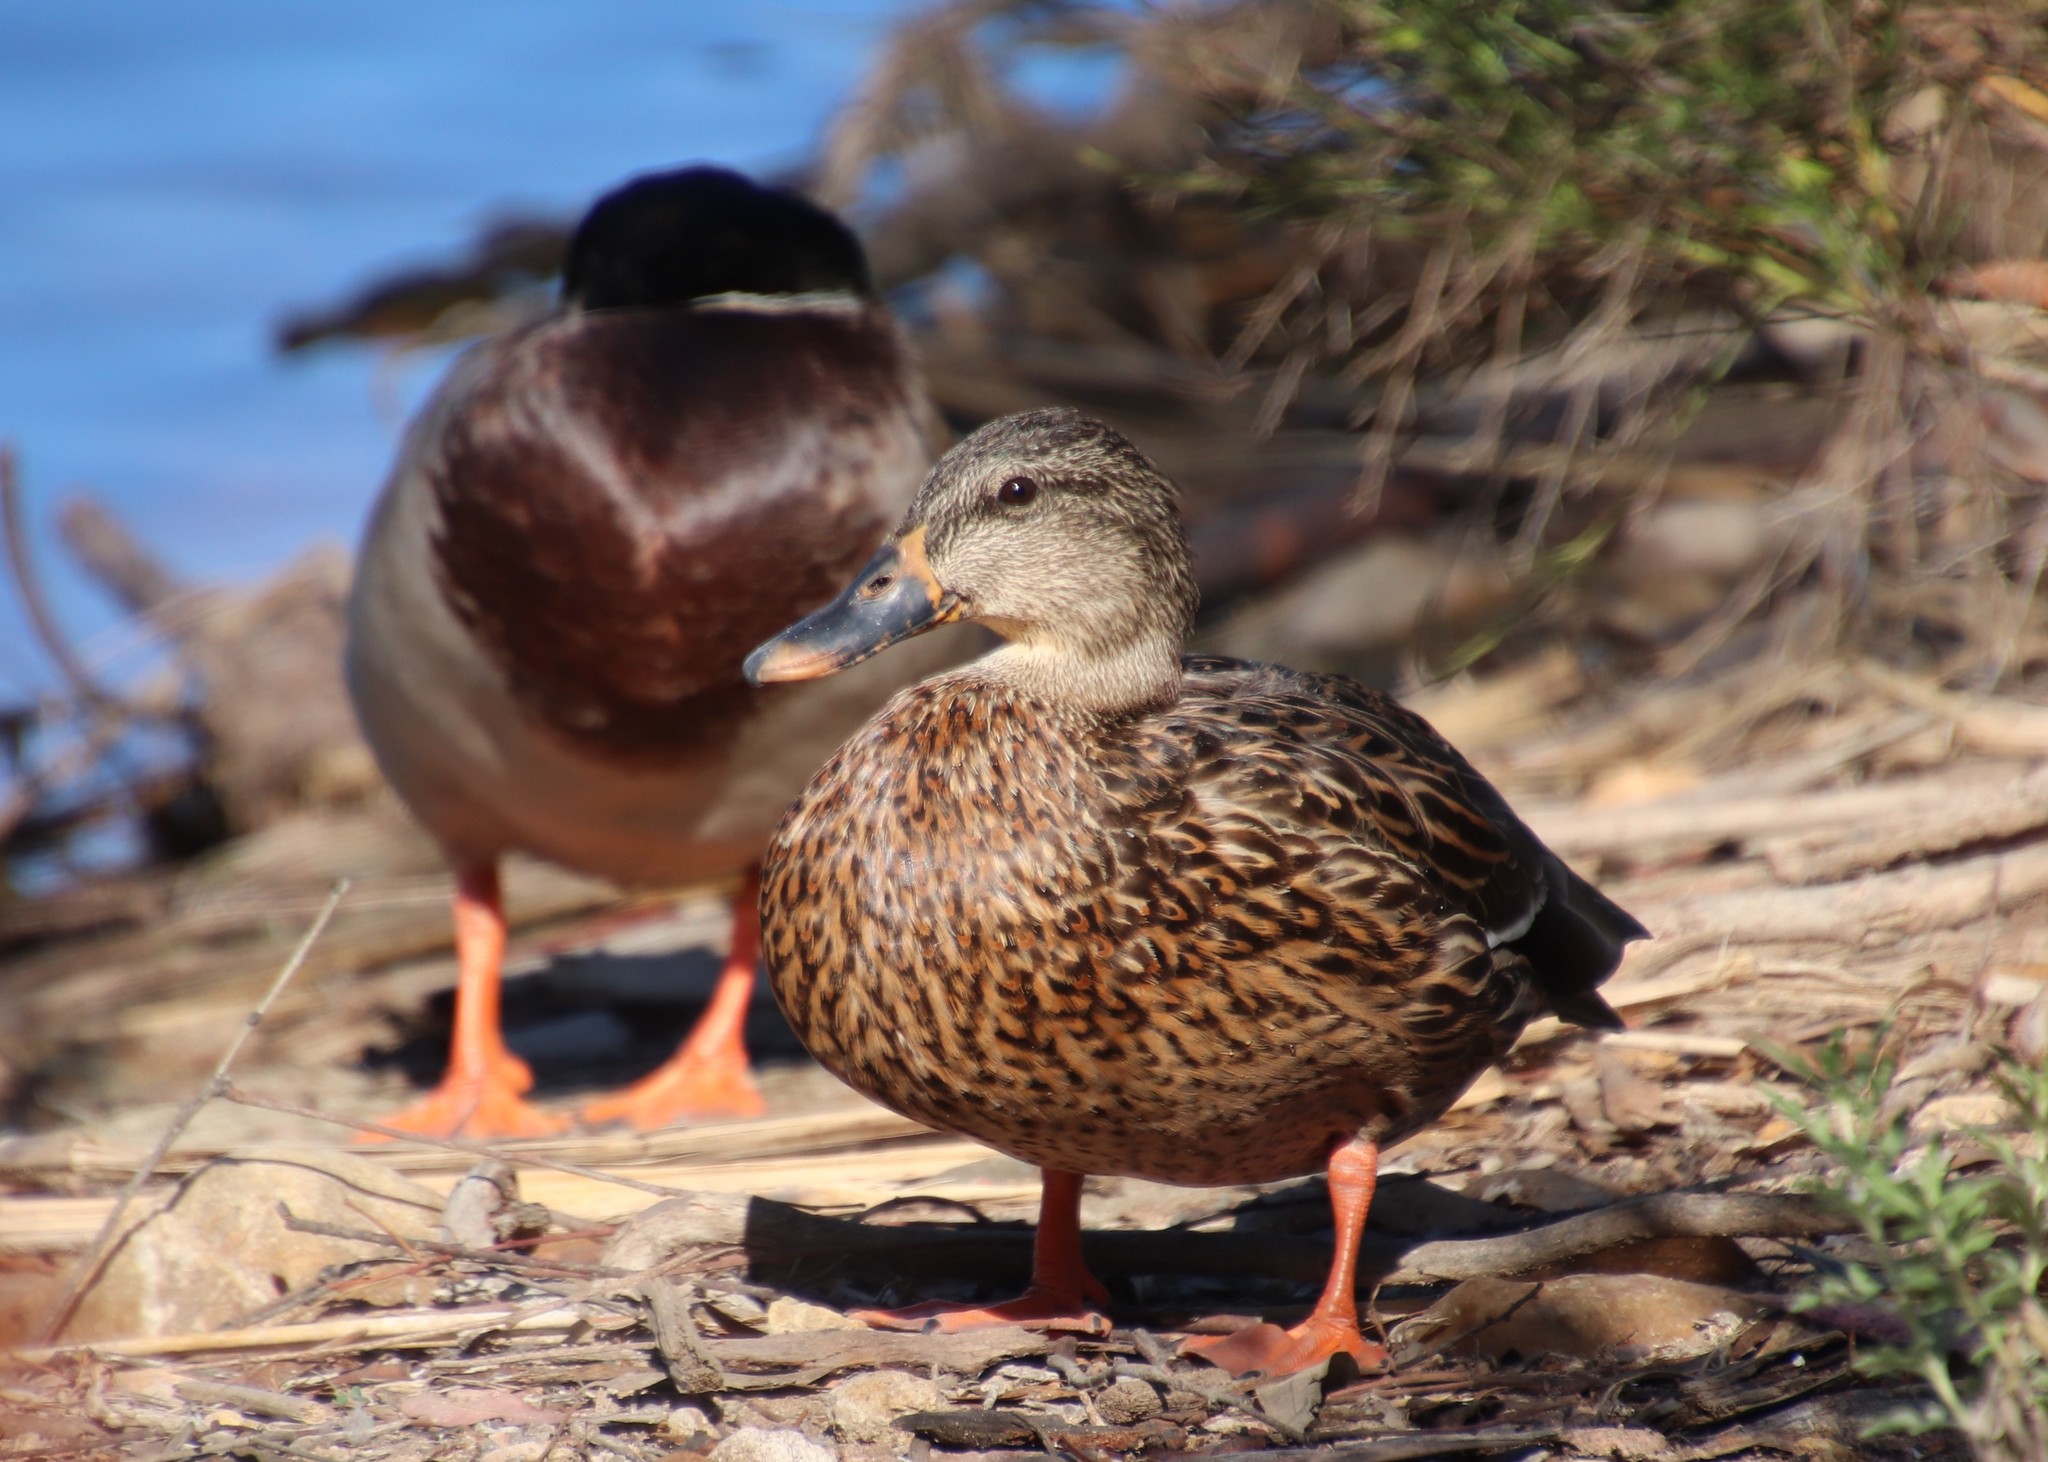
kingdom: Animalia
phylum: Chordata
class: Aves
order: Anseriformes
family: Anatidae
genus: Anas
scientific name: Anas platyrhynchos
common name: Mallard
